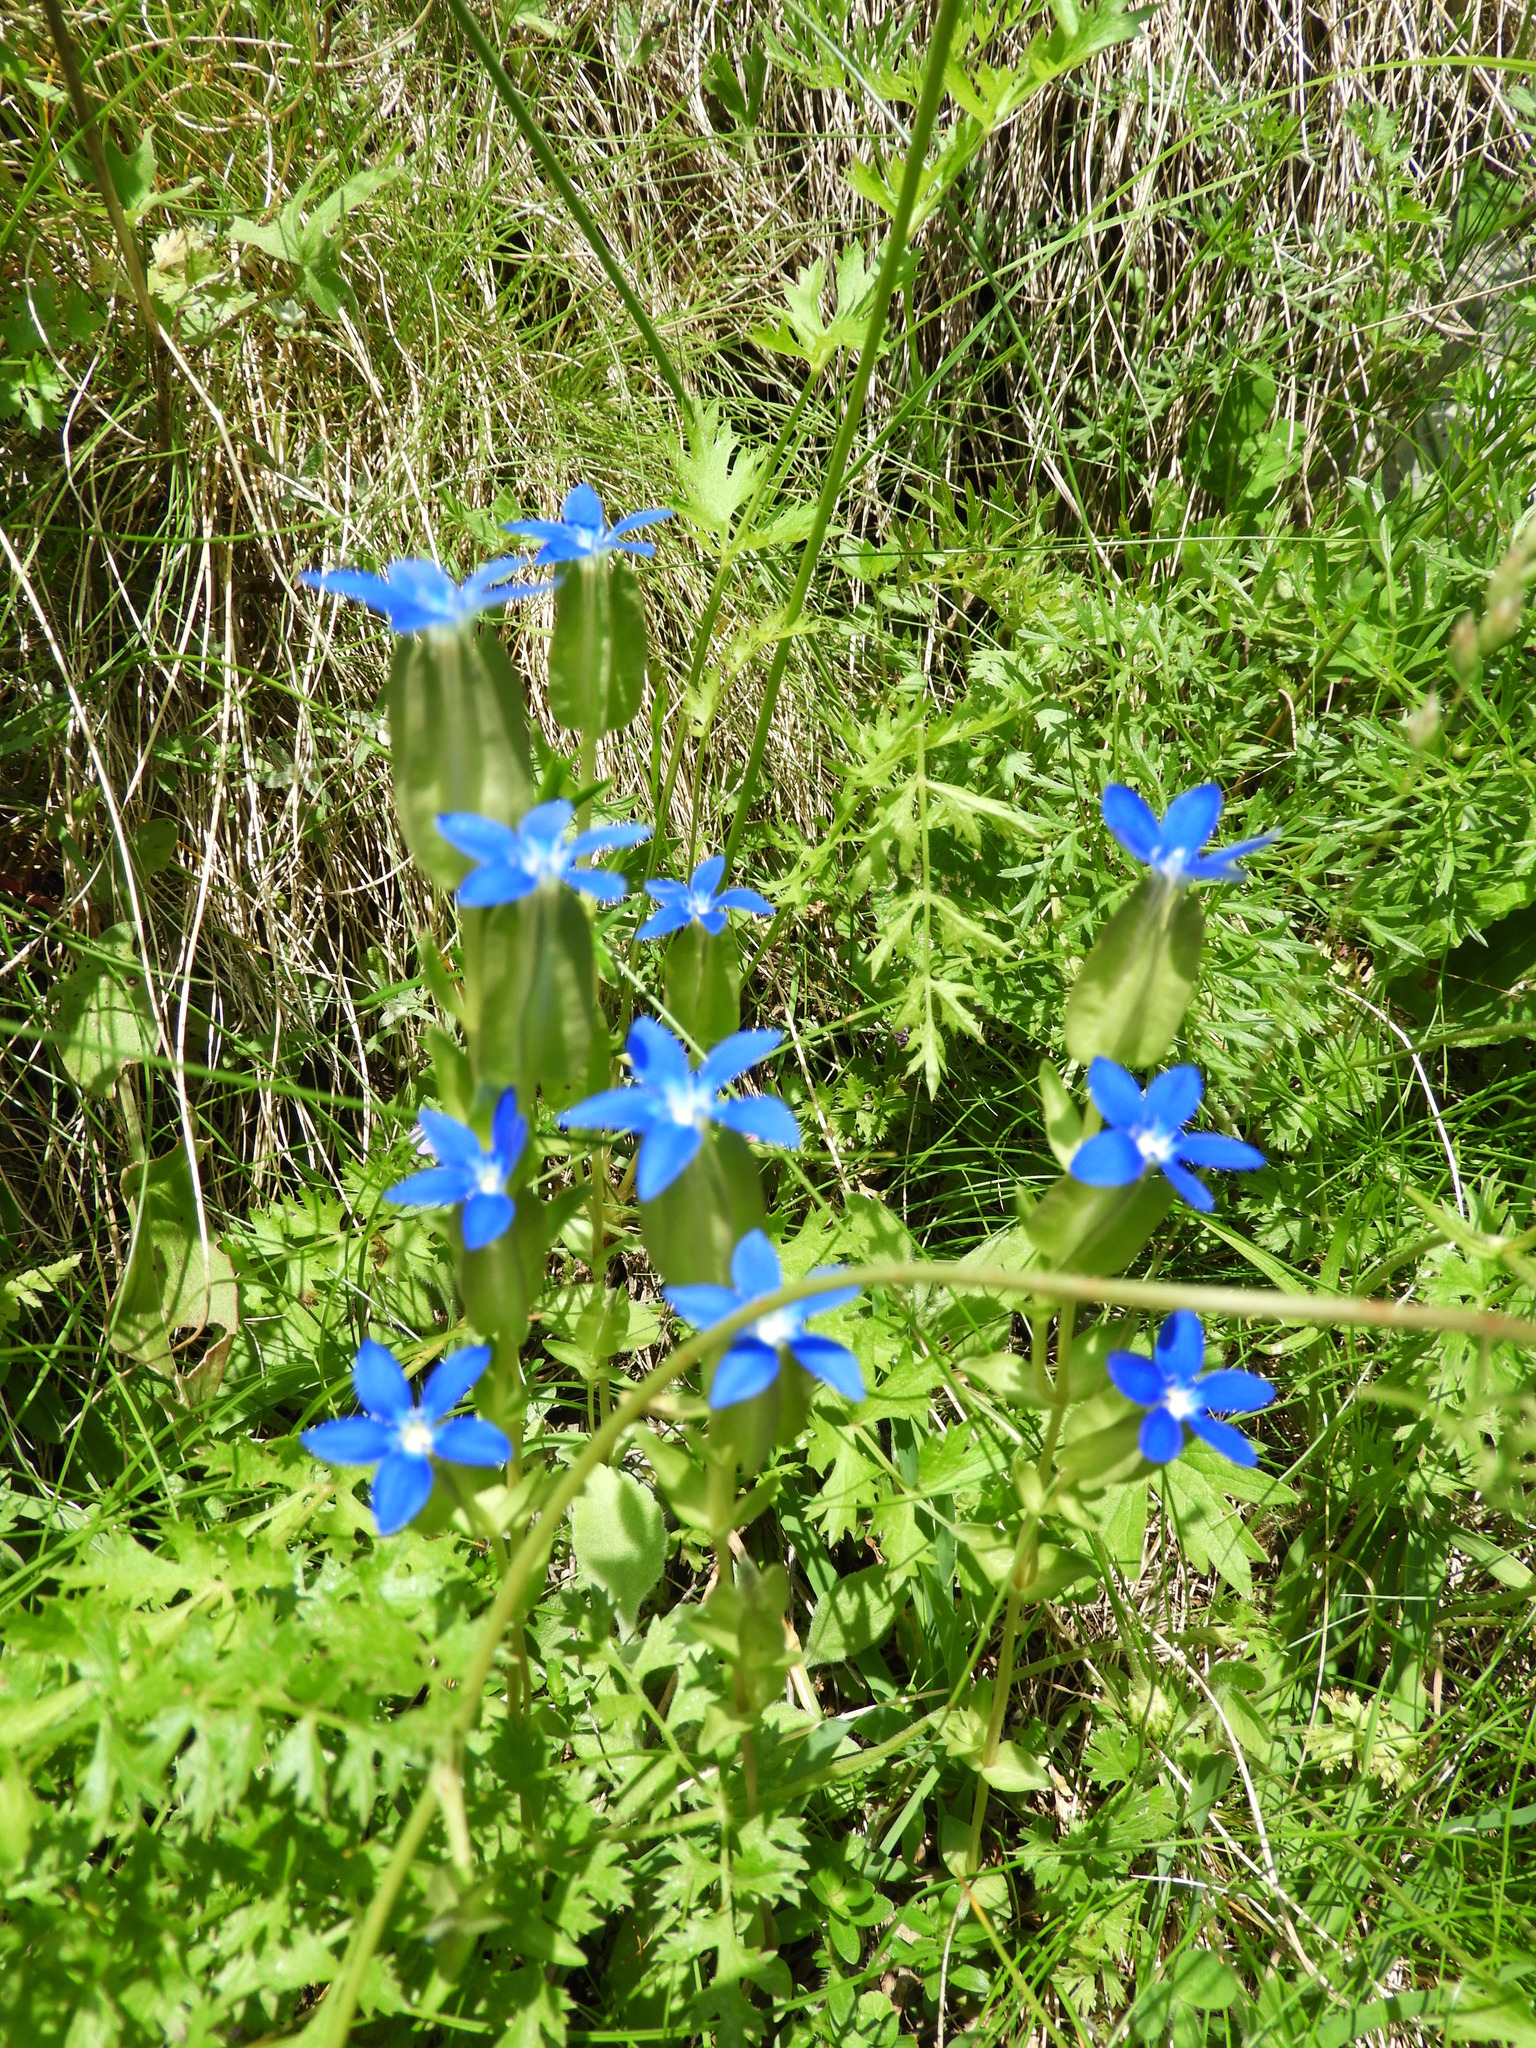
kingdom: Plantae
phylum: Tracheophyta
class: Magnoliopsida
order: Gentianales
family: Gentianaceae
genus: Gentiana
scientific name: Gentiana utriculosa
